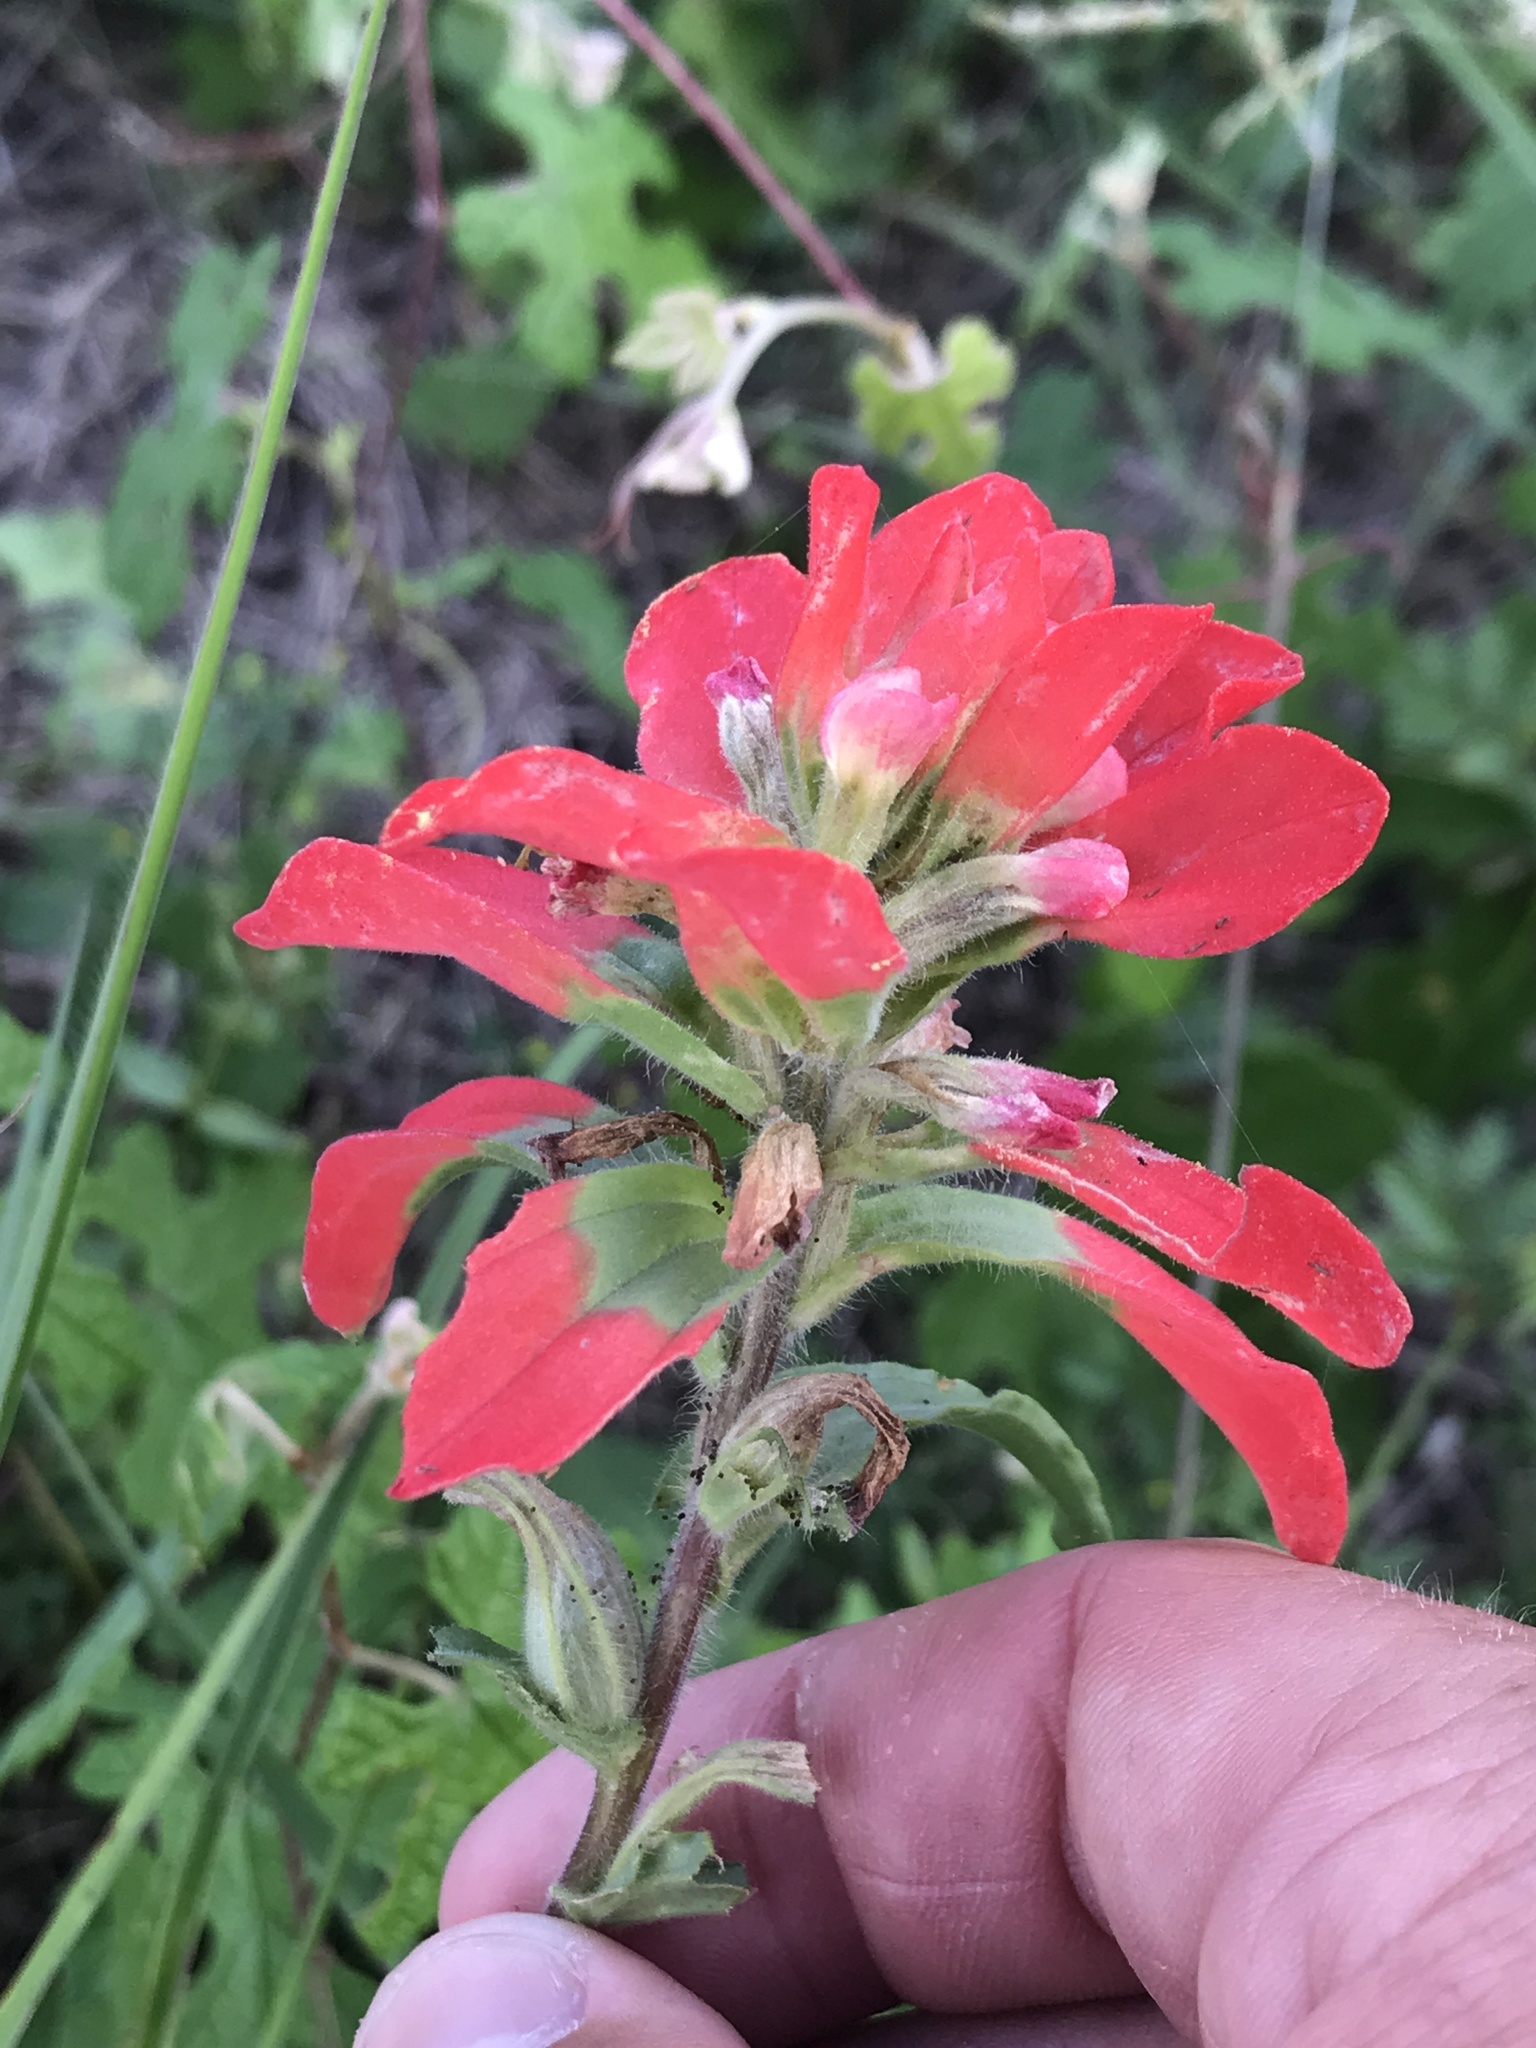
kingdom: Plantae
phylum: Tracheophyta
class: Magnoliopsida
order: Lamiales
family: Orobanchaceae
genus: Castilleja
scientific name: Castilleja indivisa
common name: Texas paintbrush
